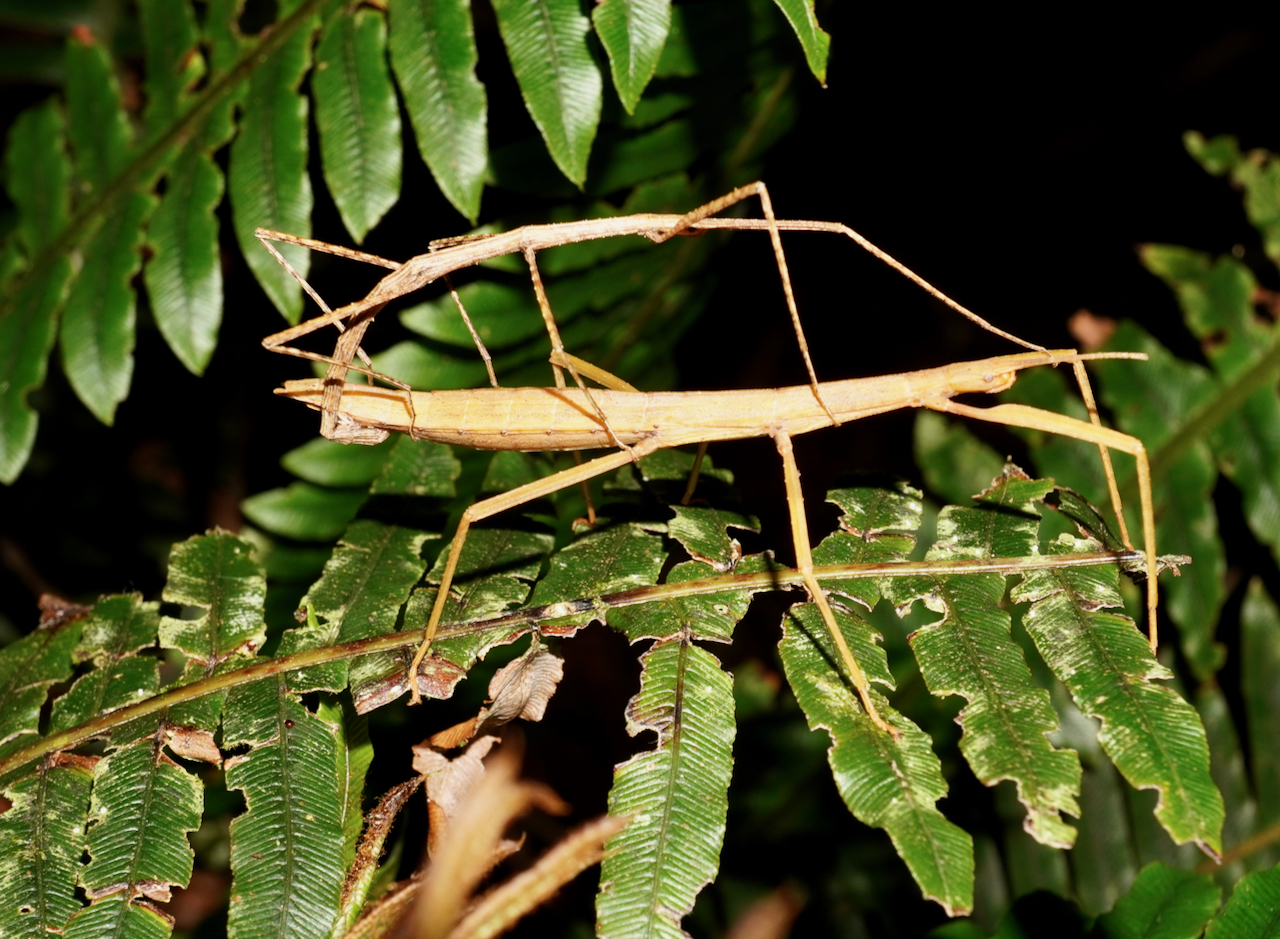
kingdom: Animalia
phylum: Arthropoda
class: Insecta
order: Phasmida
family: Phasmatidae
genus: Tectarchus
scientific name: Tectarchus ovobessus
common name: The rough-skinned ridge-backed stick insect
